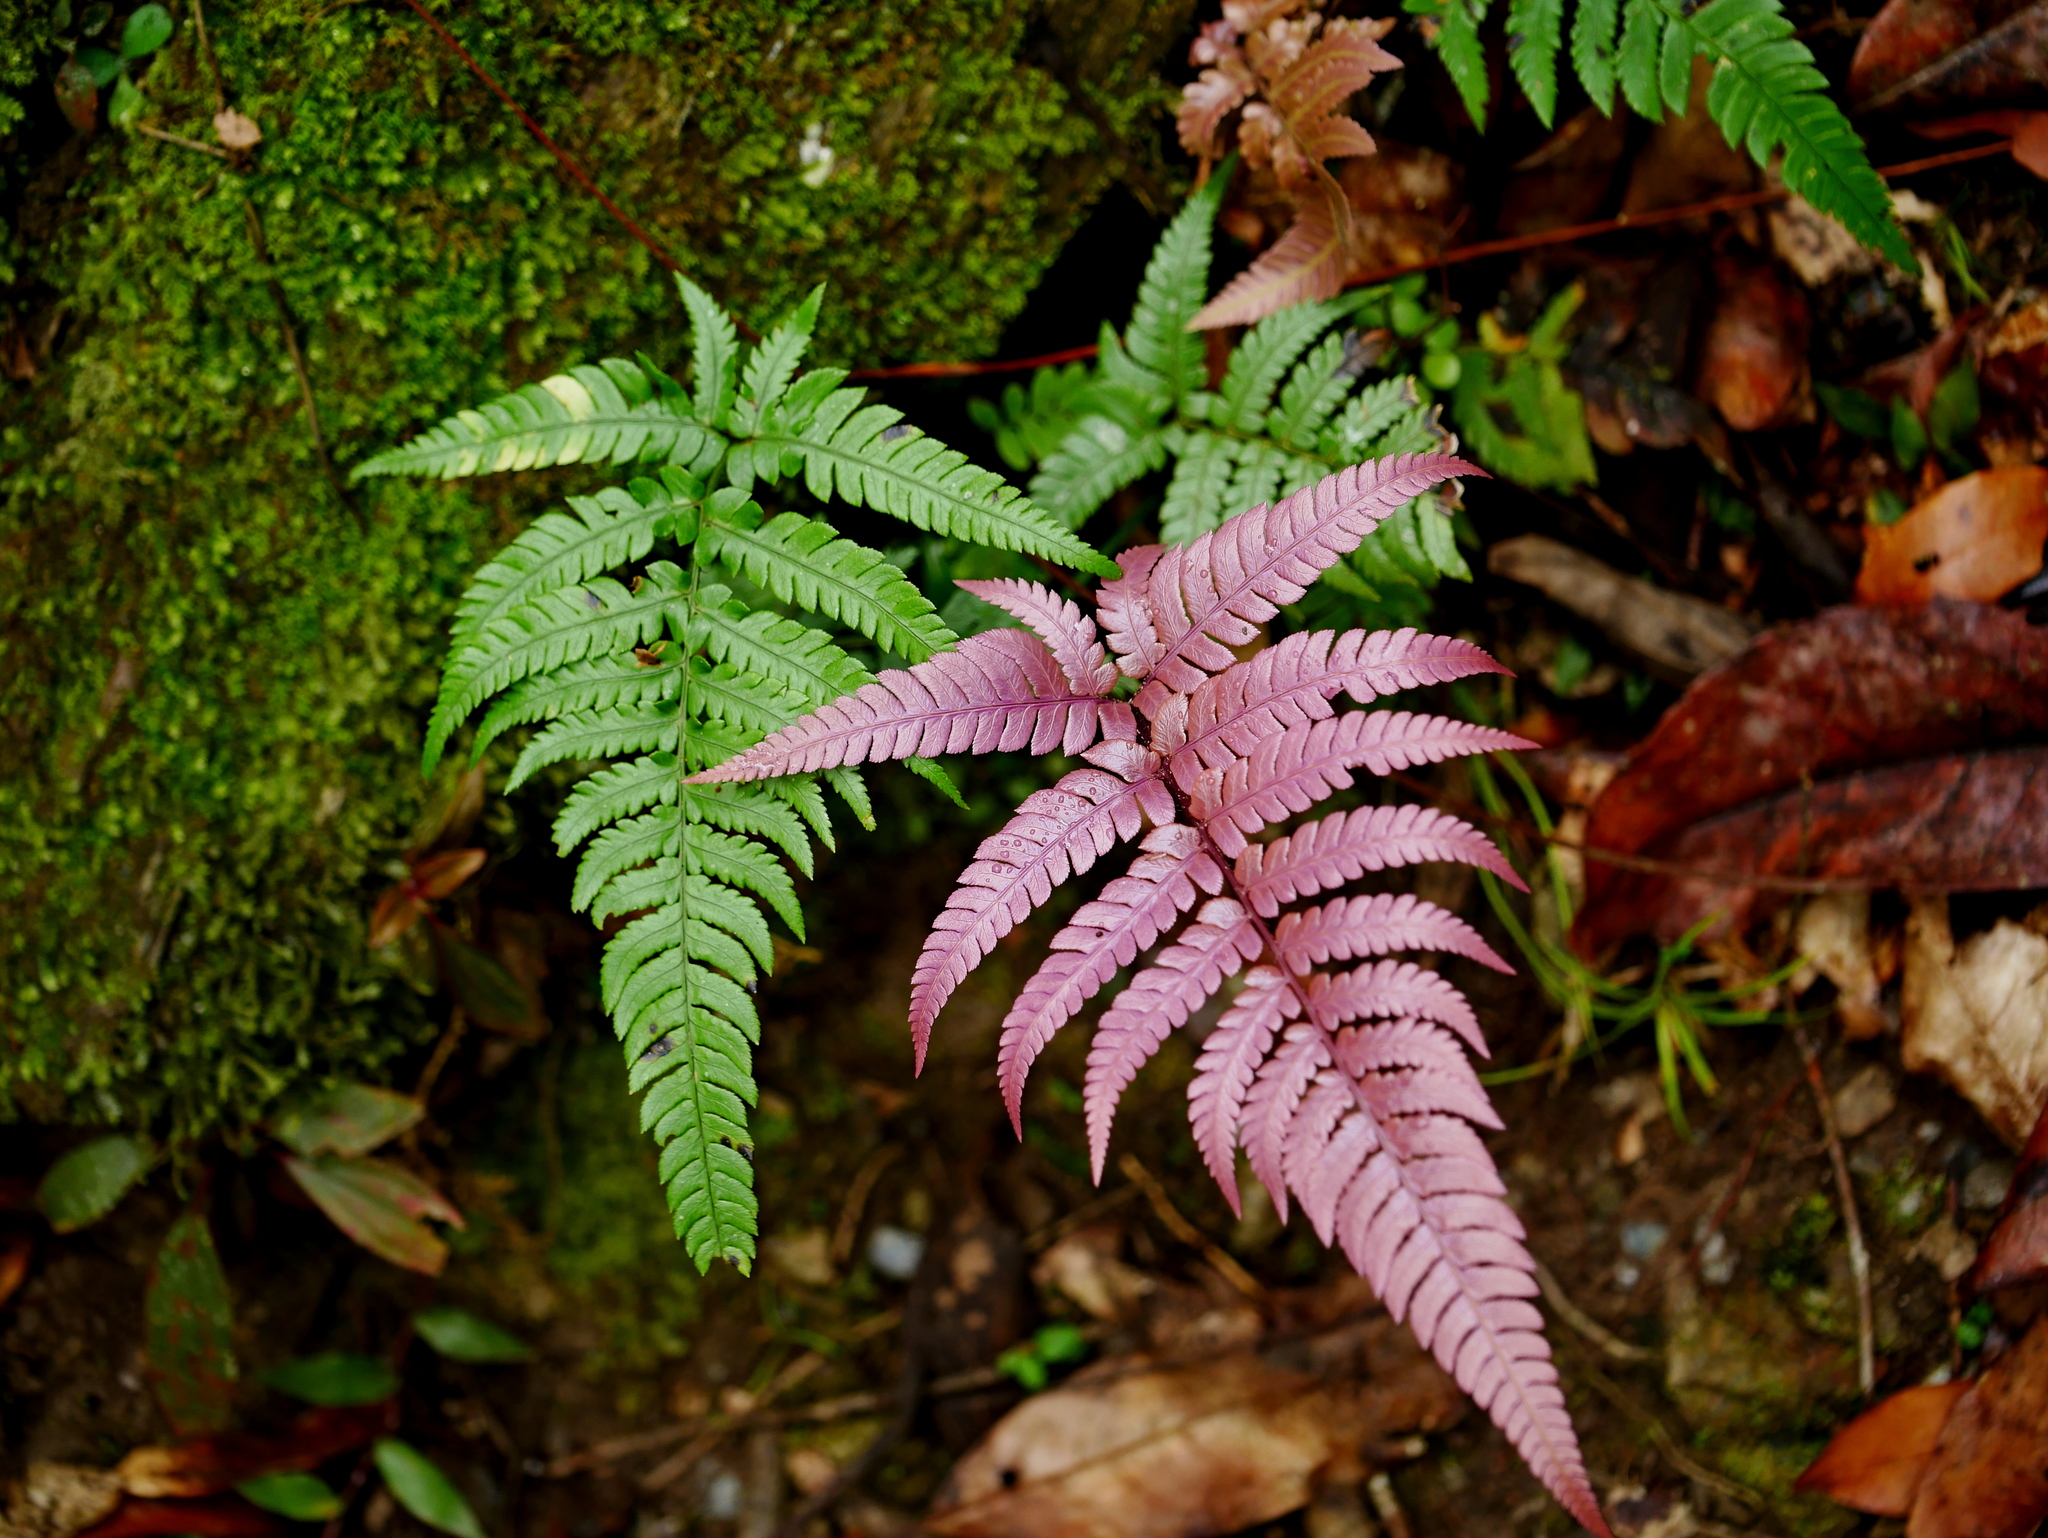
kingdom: Plantae
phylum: Tracheophyta
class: Polypodiopsida
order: Polypodiales
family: Dryopteridaceae
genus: Dryopteris
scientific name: Dryopteris varia
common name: Japanese holly fern
